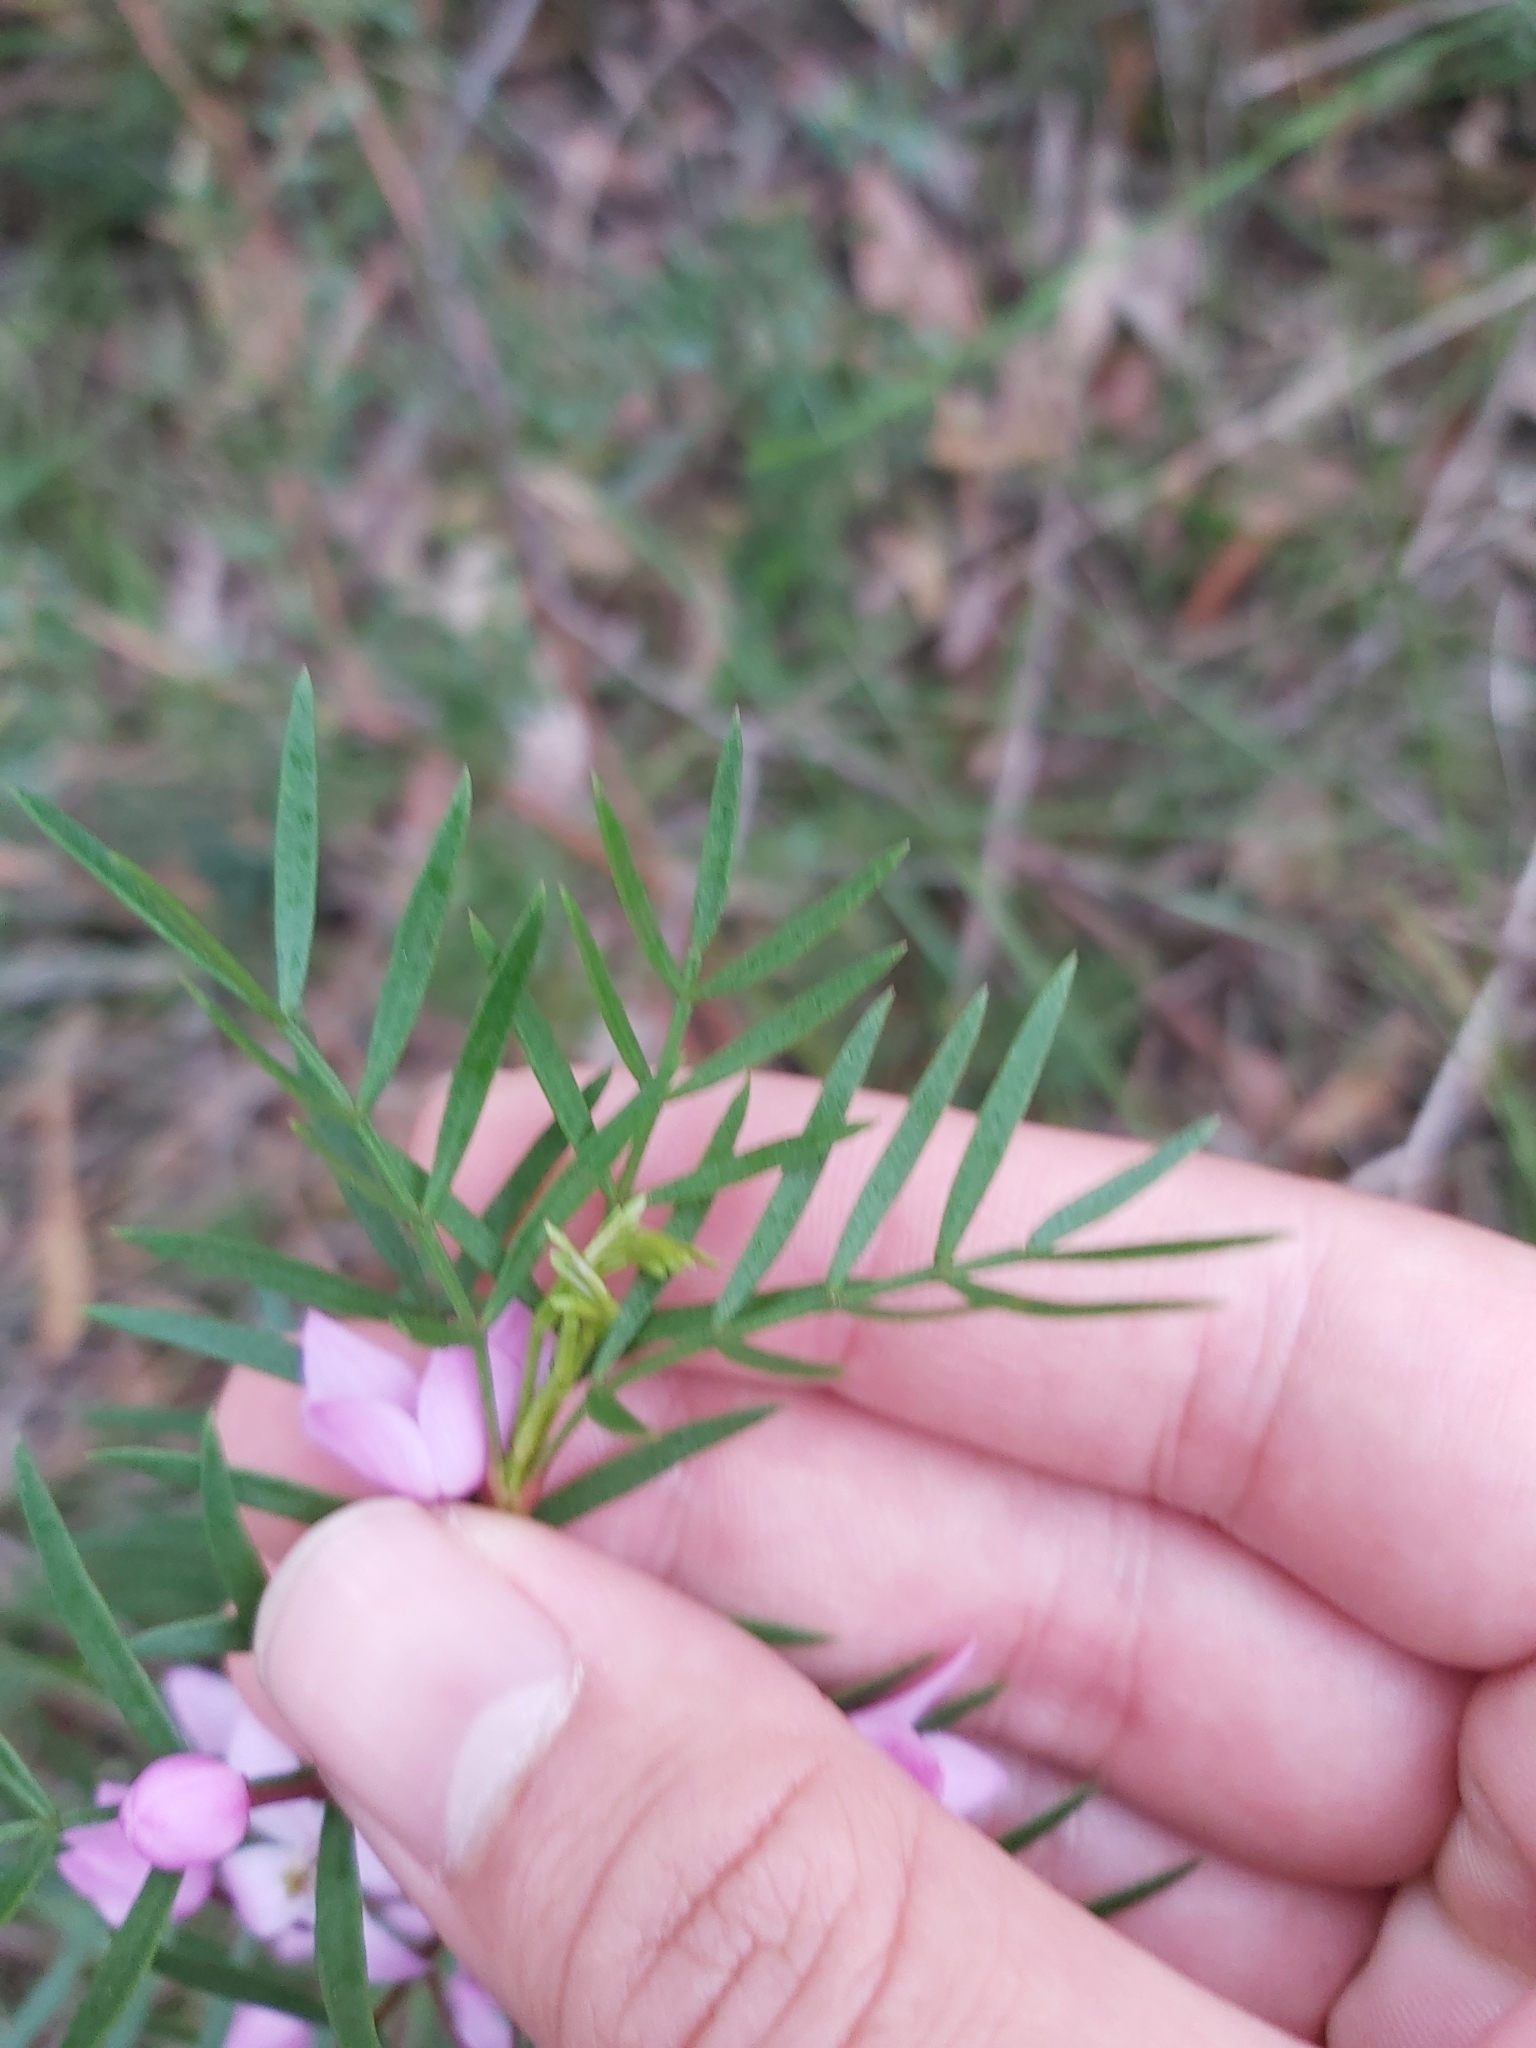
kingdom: Plantae
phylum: Tracheophyta
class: Magnoliopsida
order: Sapindales
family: Rutaceae
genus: Boronia
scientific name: Boronia pinnata
